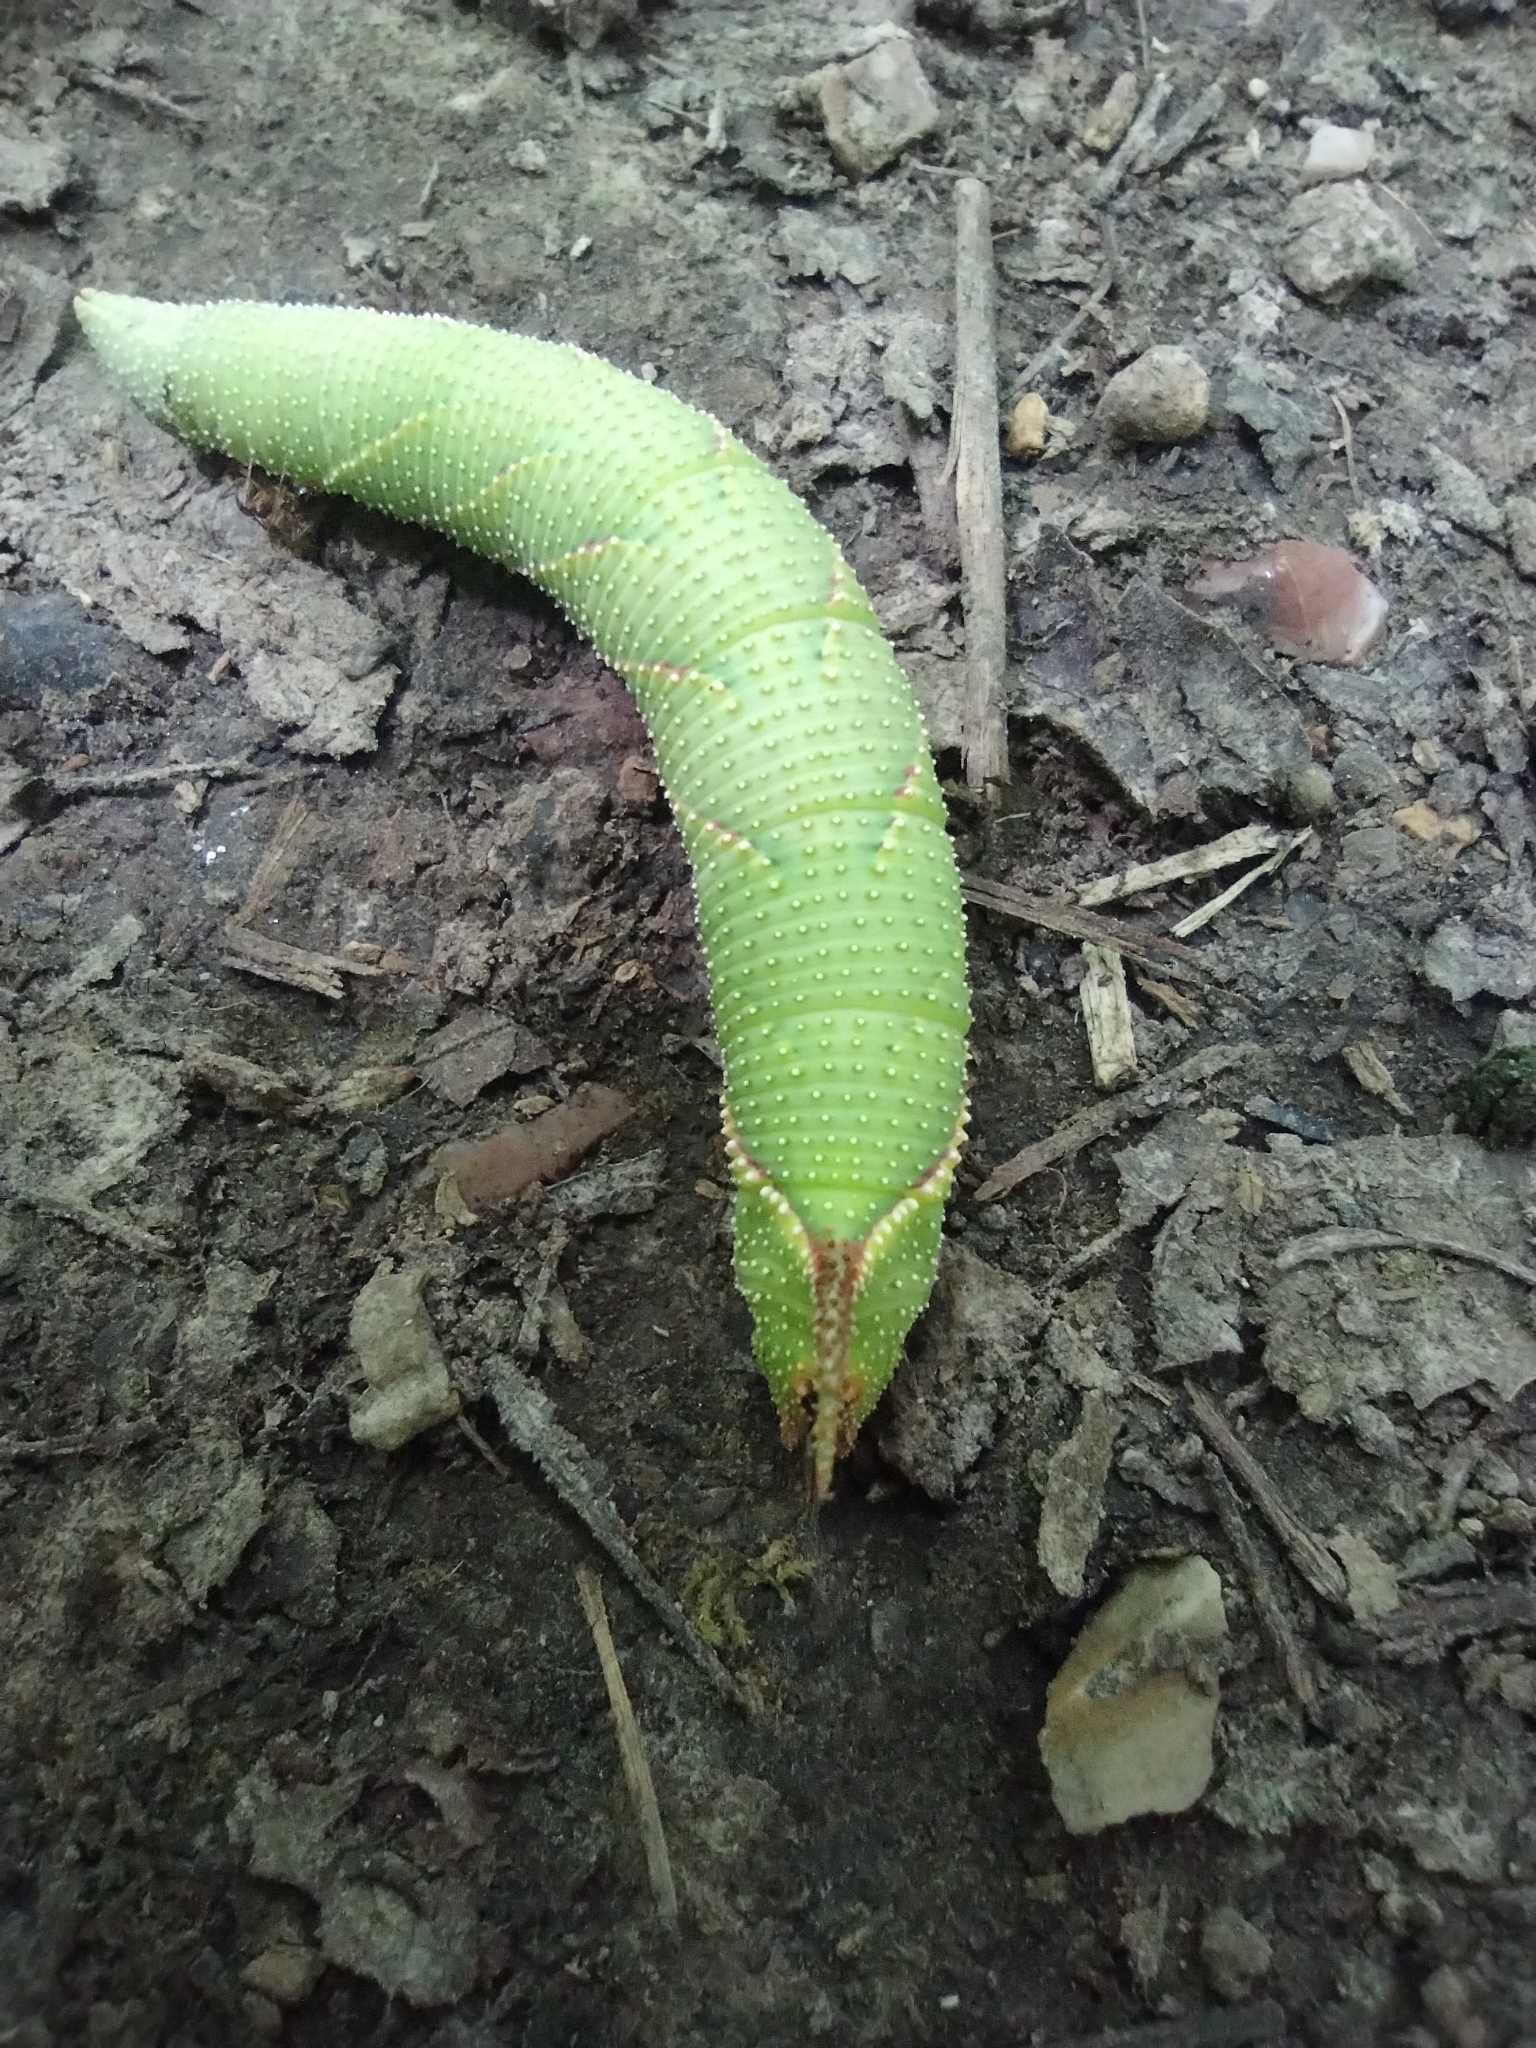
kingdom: Animalia
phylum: Arthropoda
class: Insecta
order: Lepidoptera
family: Sphingidae
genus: Amorpha
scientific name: Amorpha juglandis
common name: Walnut sphinx
